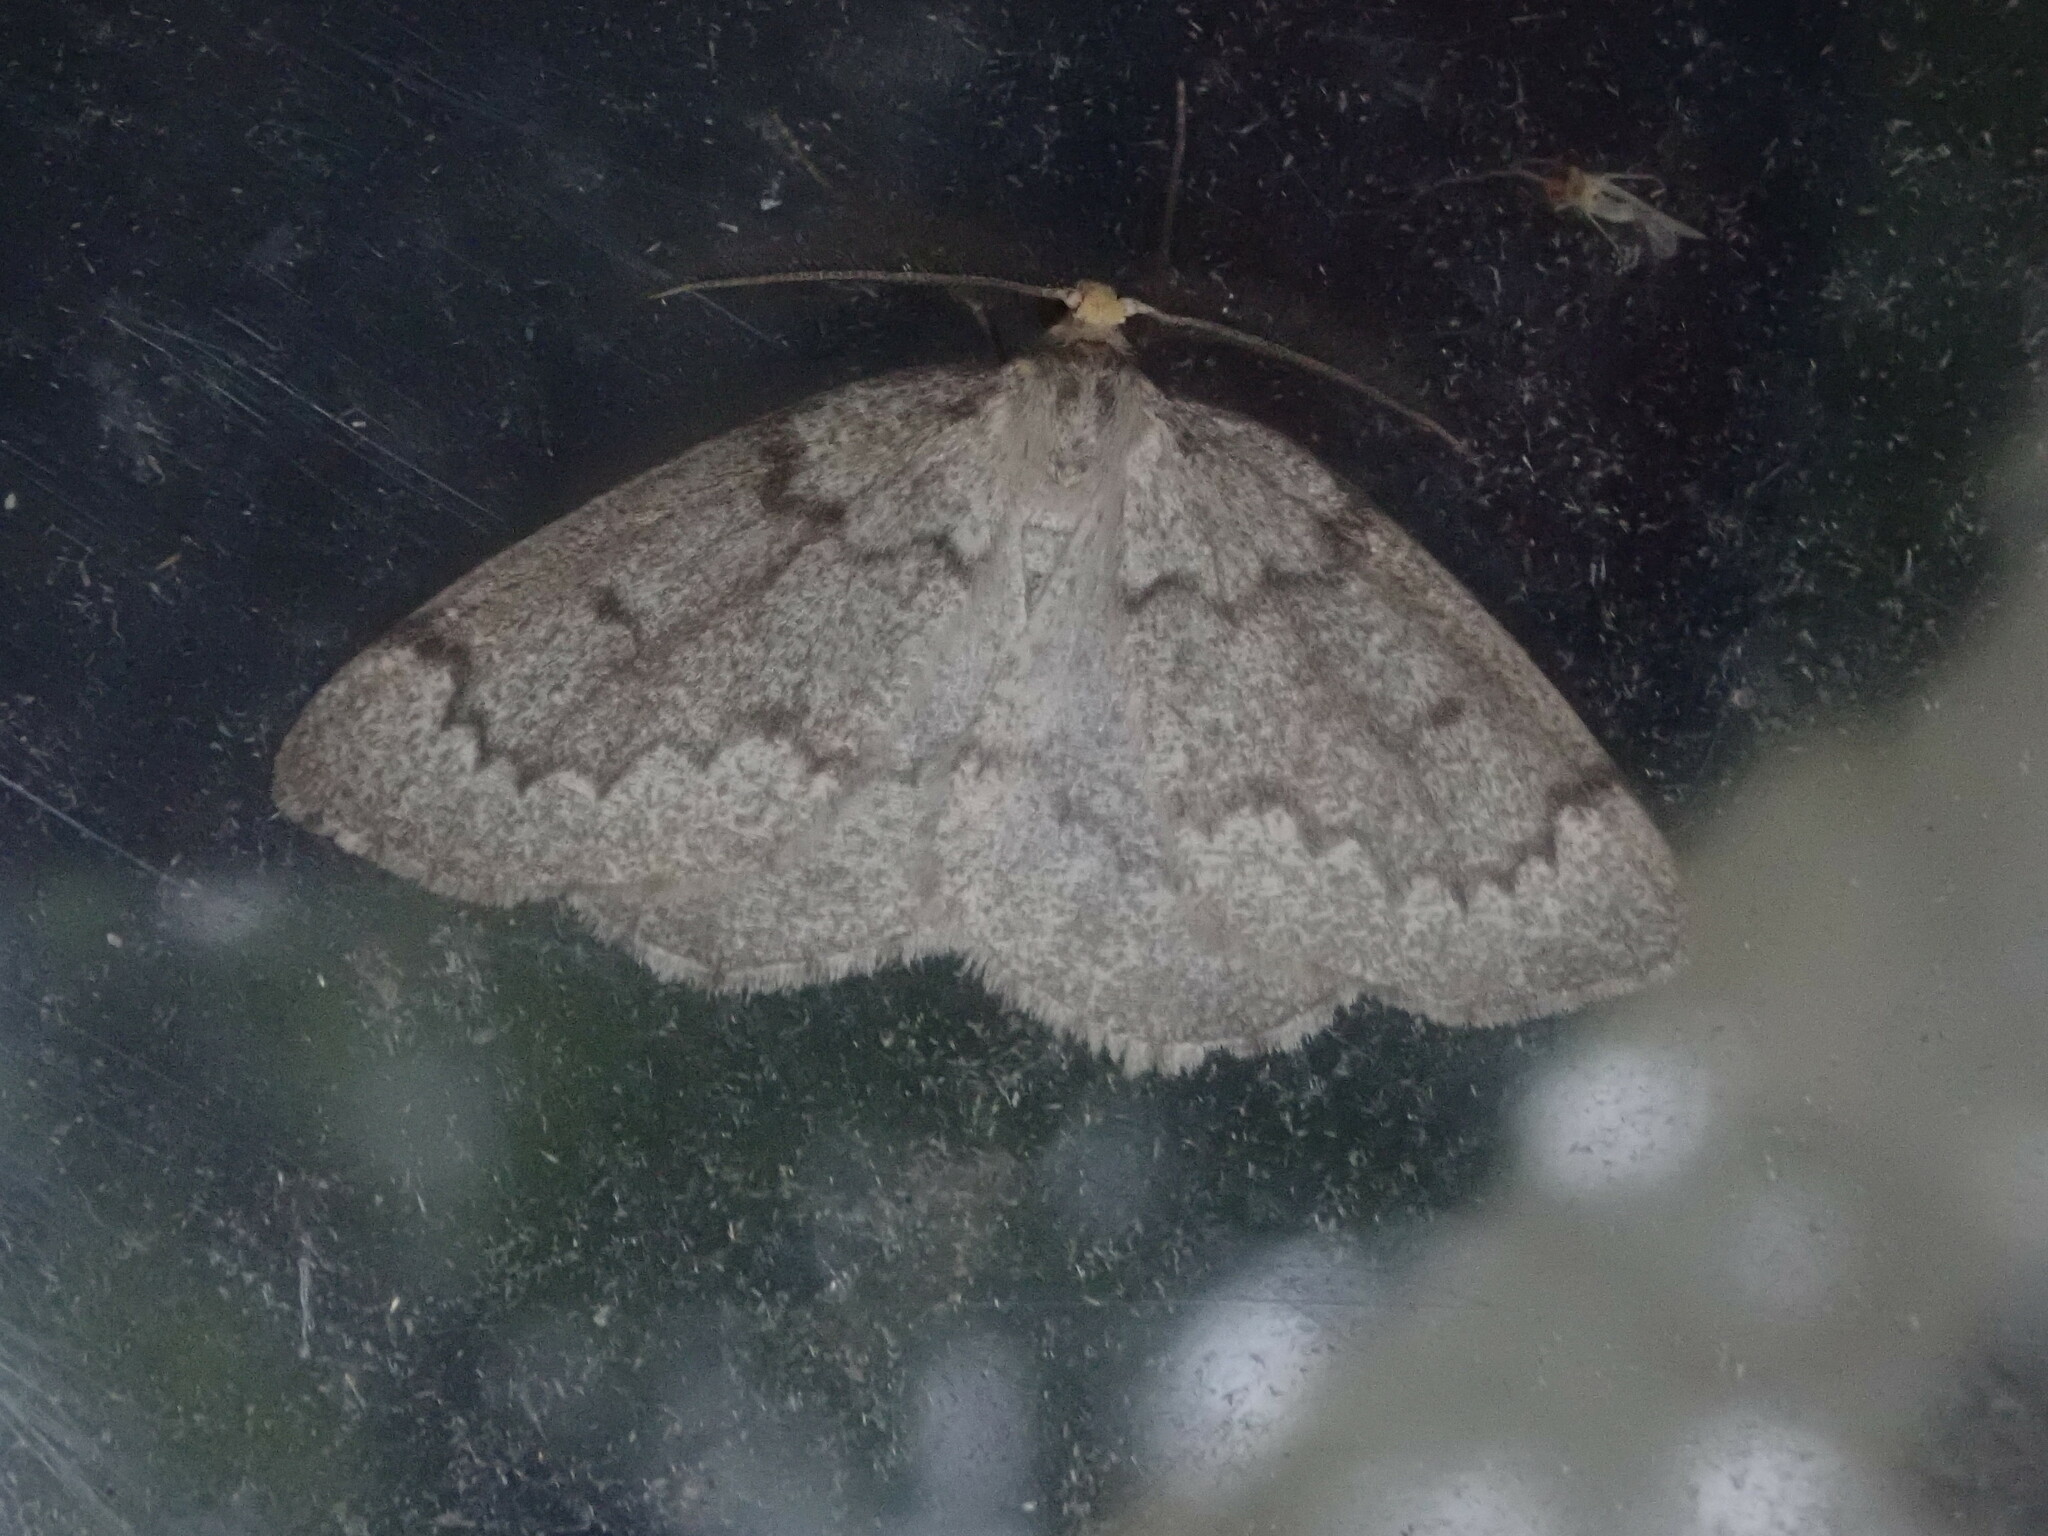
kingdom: Animalia
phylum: Arthropoda
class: Insecta
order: Lepidoptera
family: Geometridae
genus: Nepytia
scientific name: Nepytia canosaria
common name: False hemlock looper
